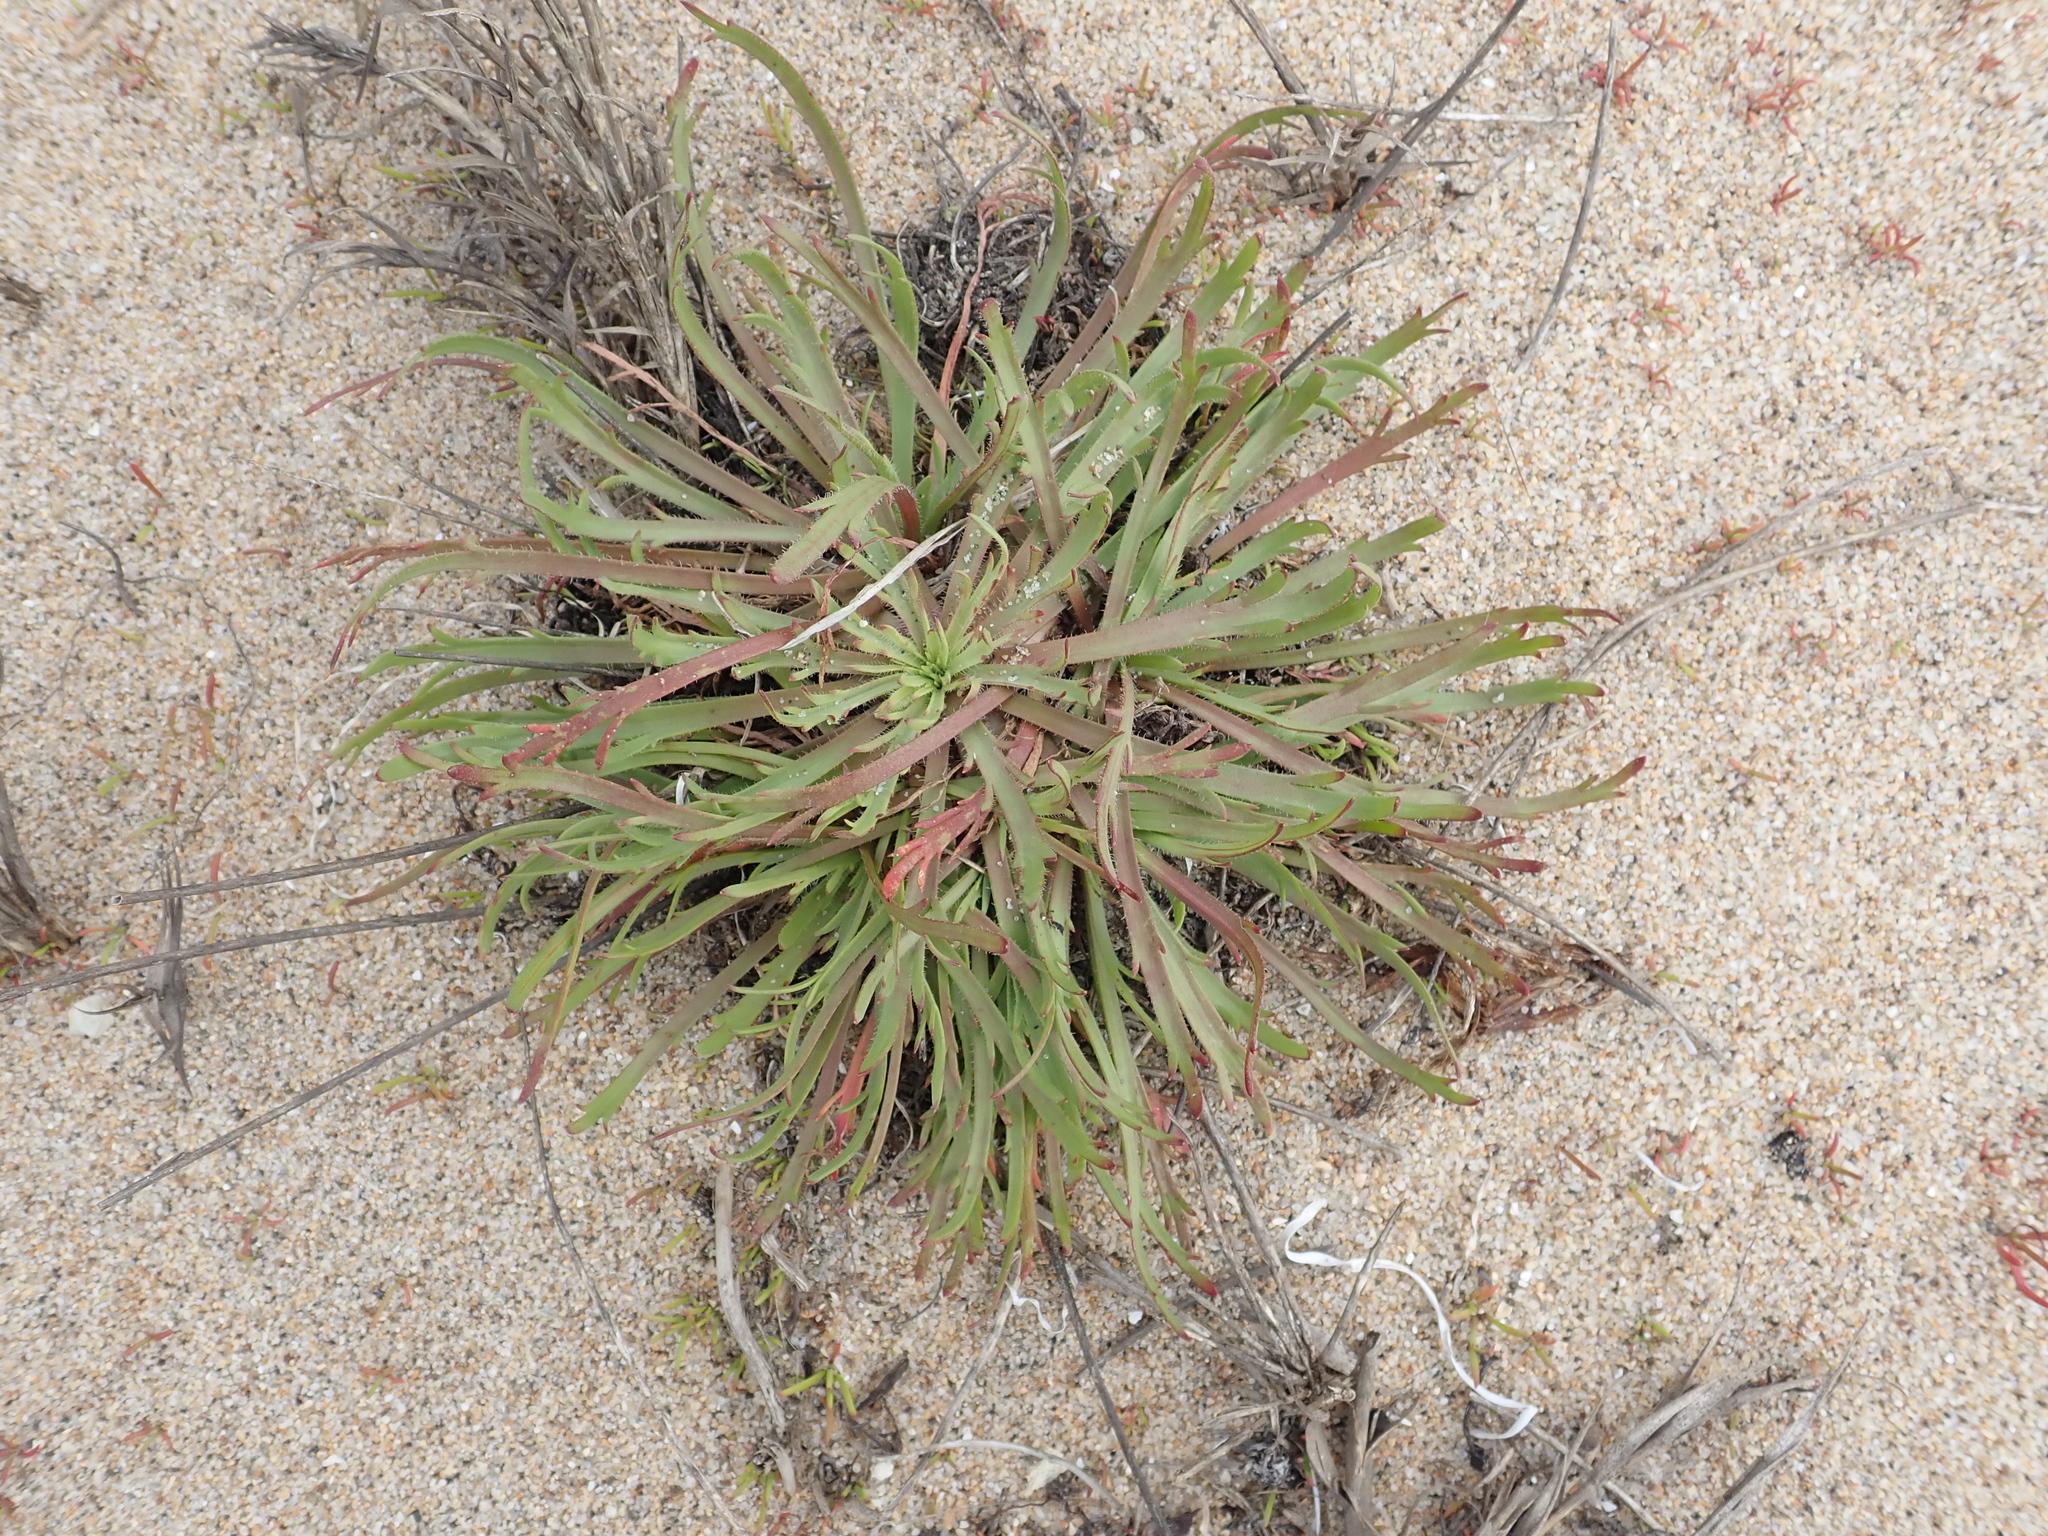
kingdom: Plantae
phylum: Tracheophyta
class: Magnoliopsida
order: Lamiales
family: Plantaginaceae
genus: Plantago
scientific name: Plantago coronopus
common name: Buck's-horn plantain
